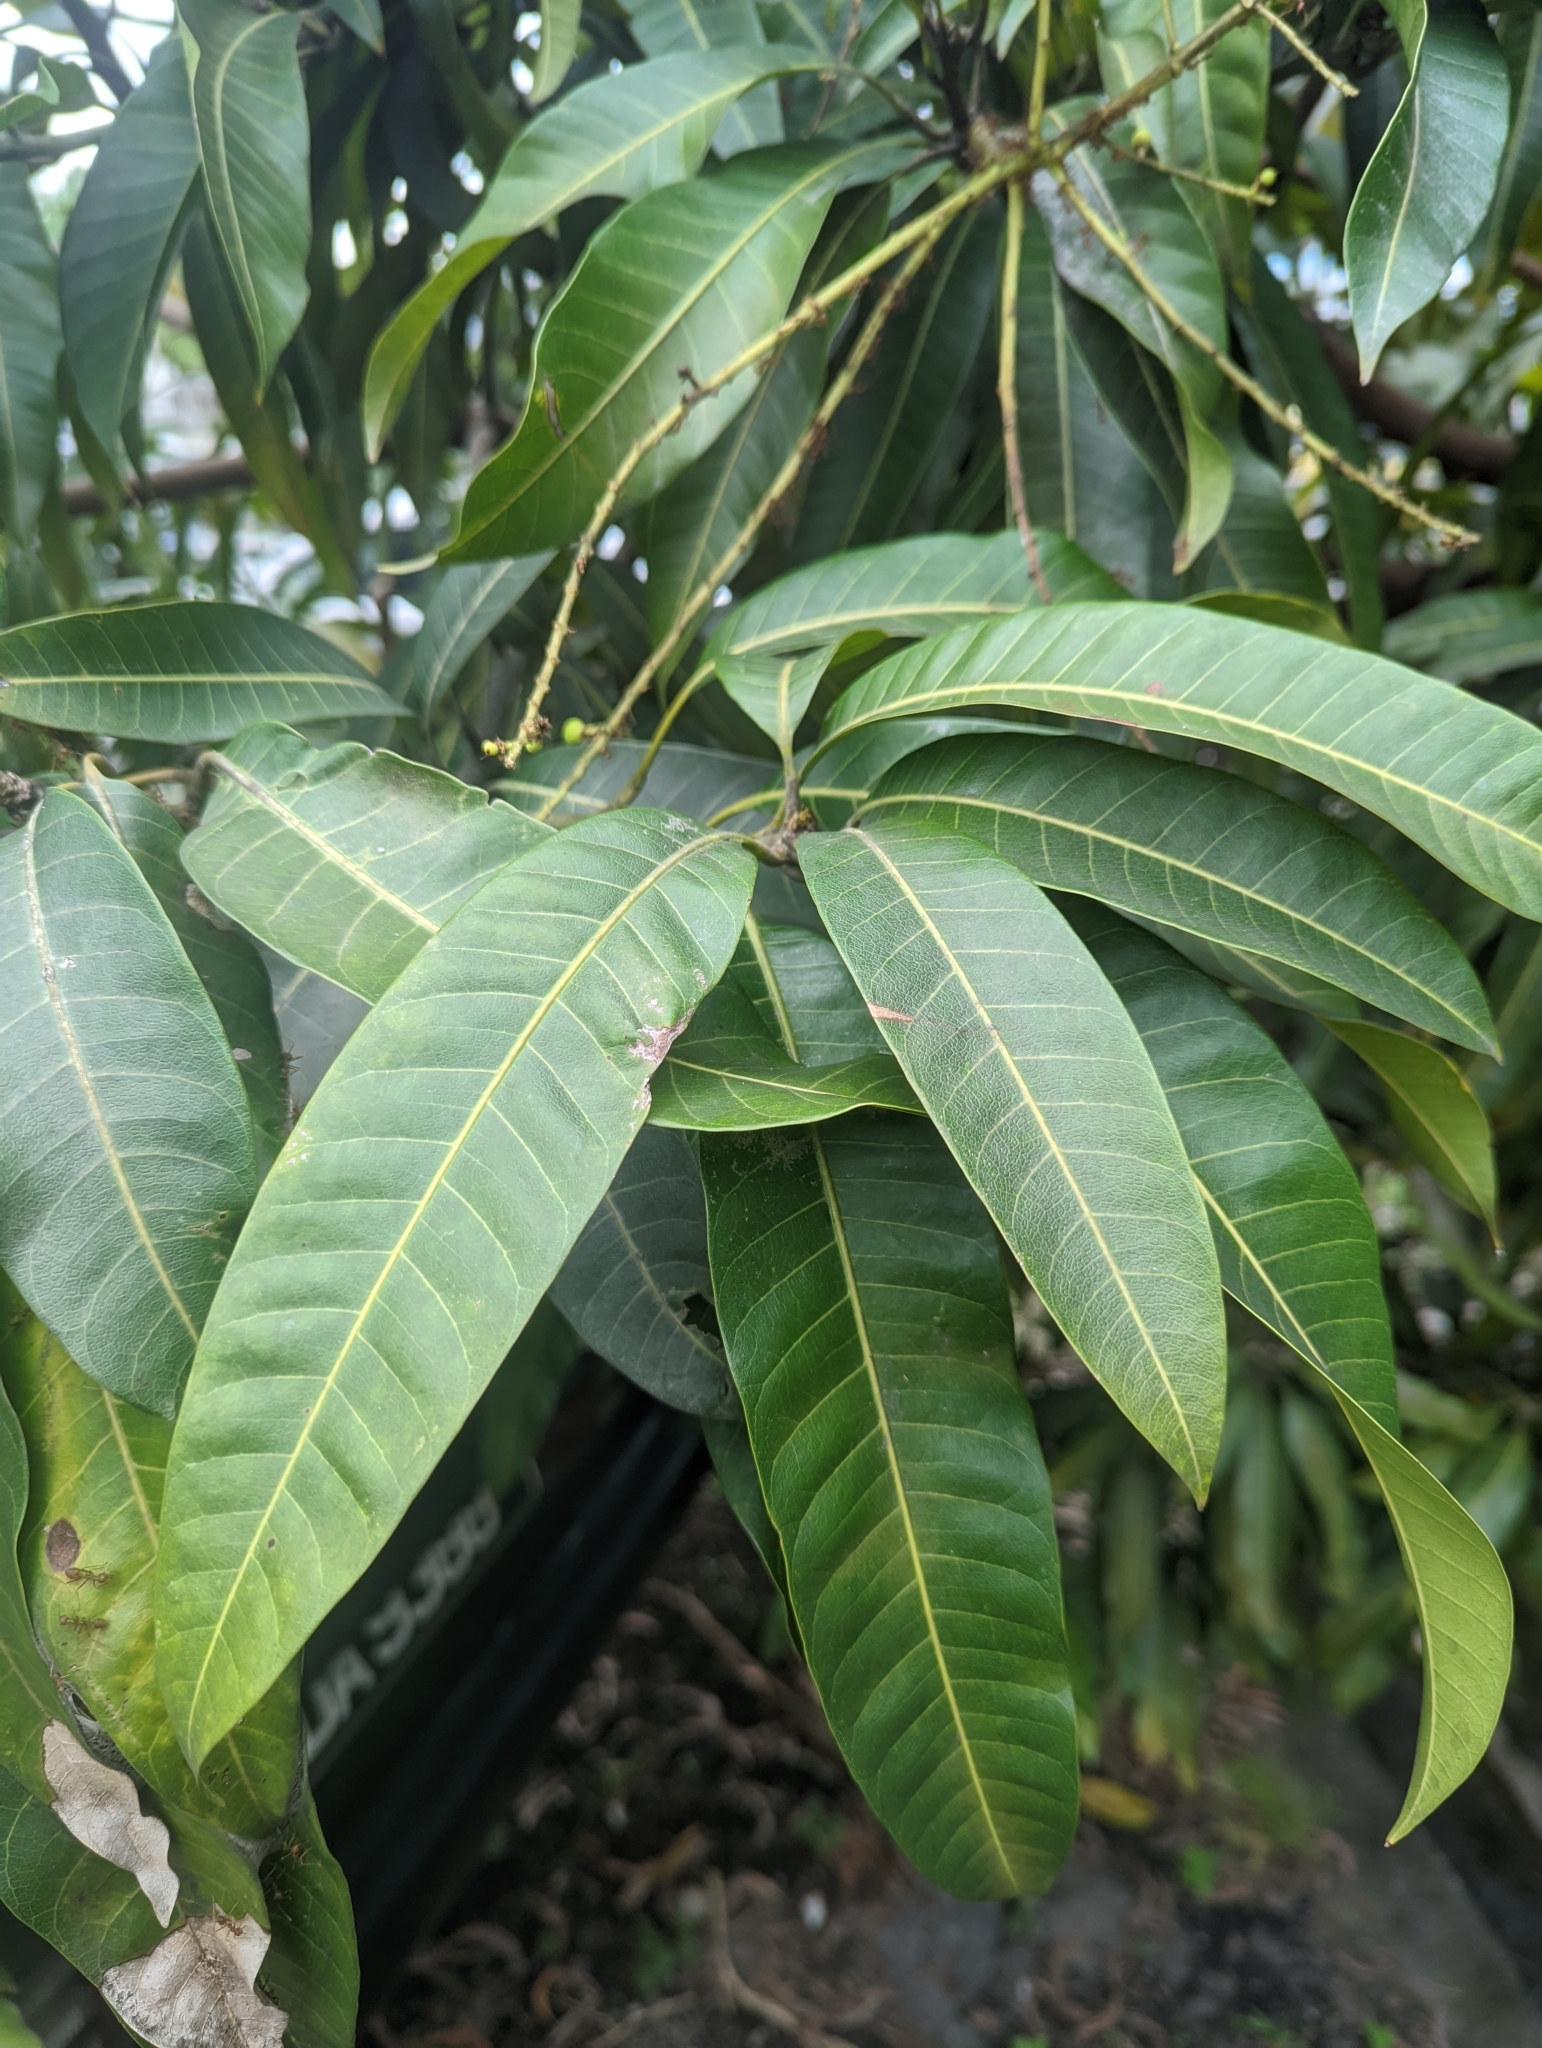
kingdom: Plantae
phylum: Tracheophyta
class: Magnoliopsida
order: Sapindales
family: Anacardiaceae
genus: Mangifera
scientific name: Mangifera indica
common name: Mango
